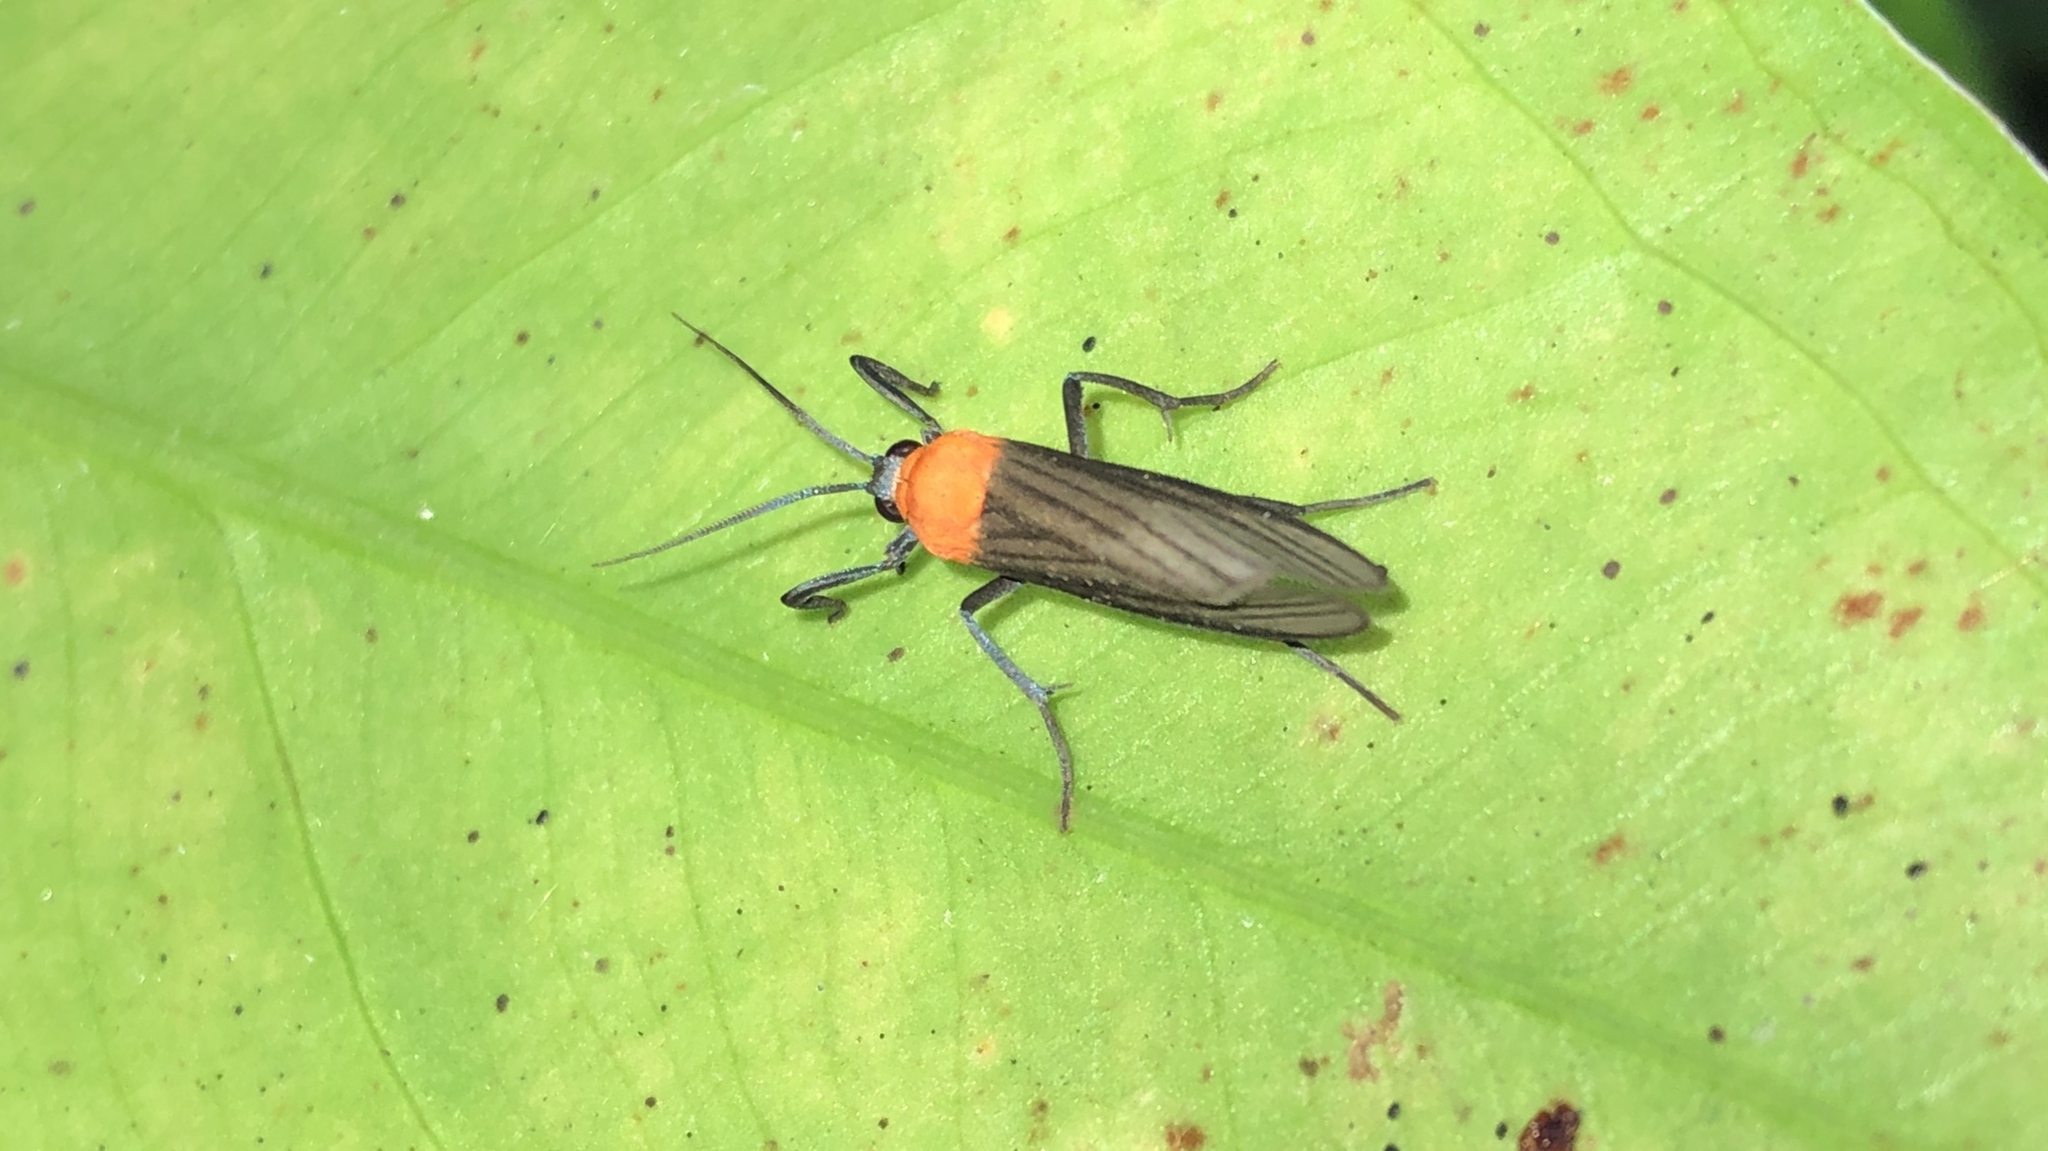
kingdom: Animalia
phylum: Arthropoda
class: Insecta
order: Lepidoptera
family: Erebidae
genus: Balbura
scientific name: Balbura dorsisigna
